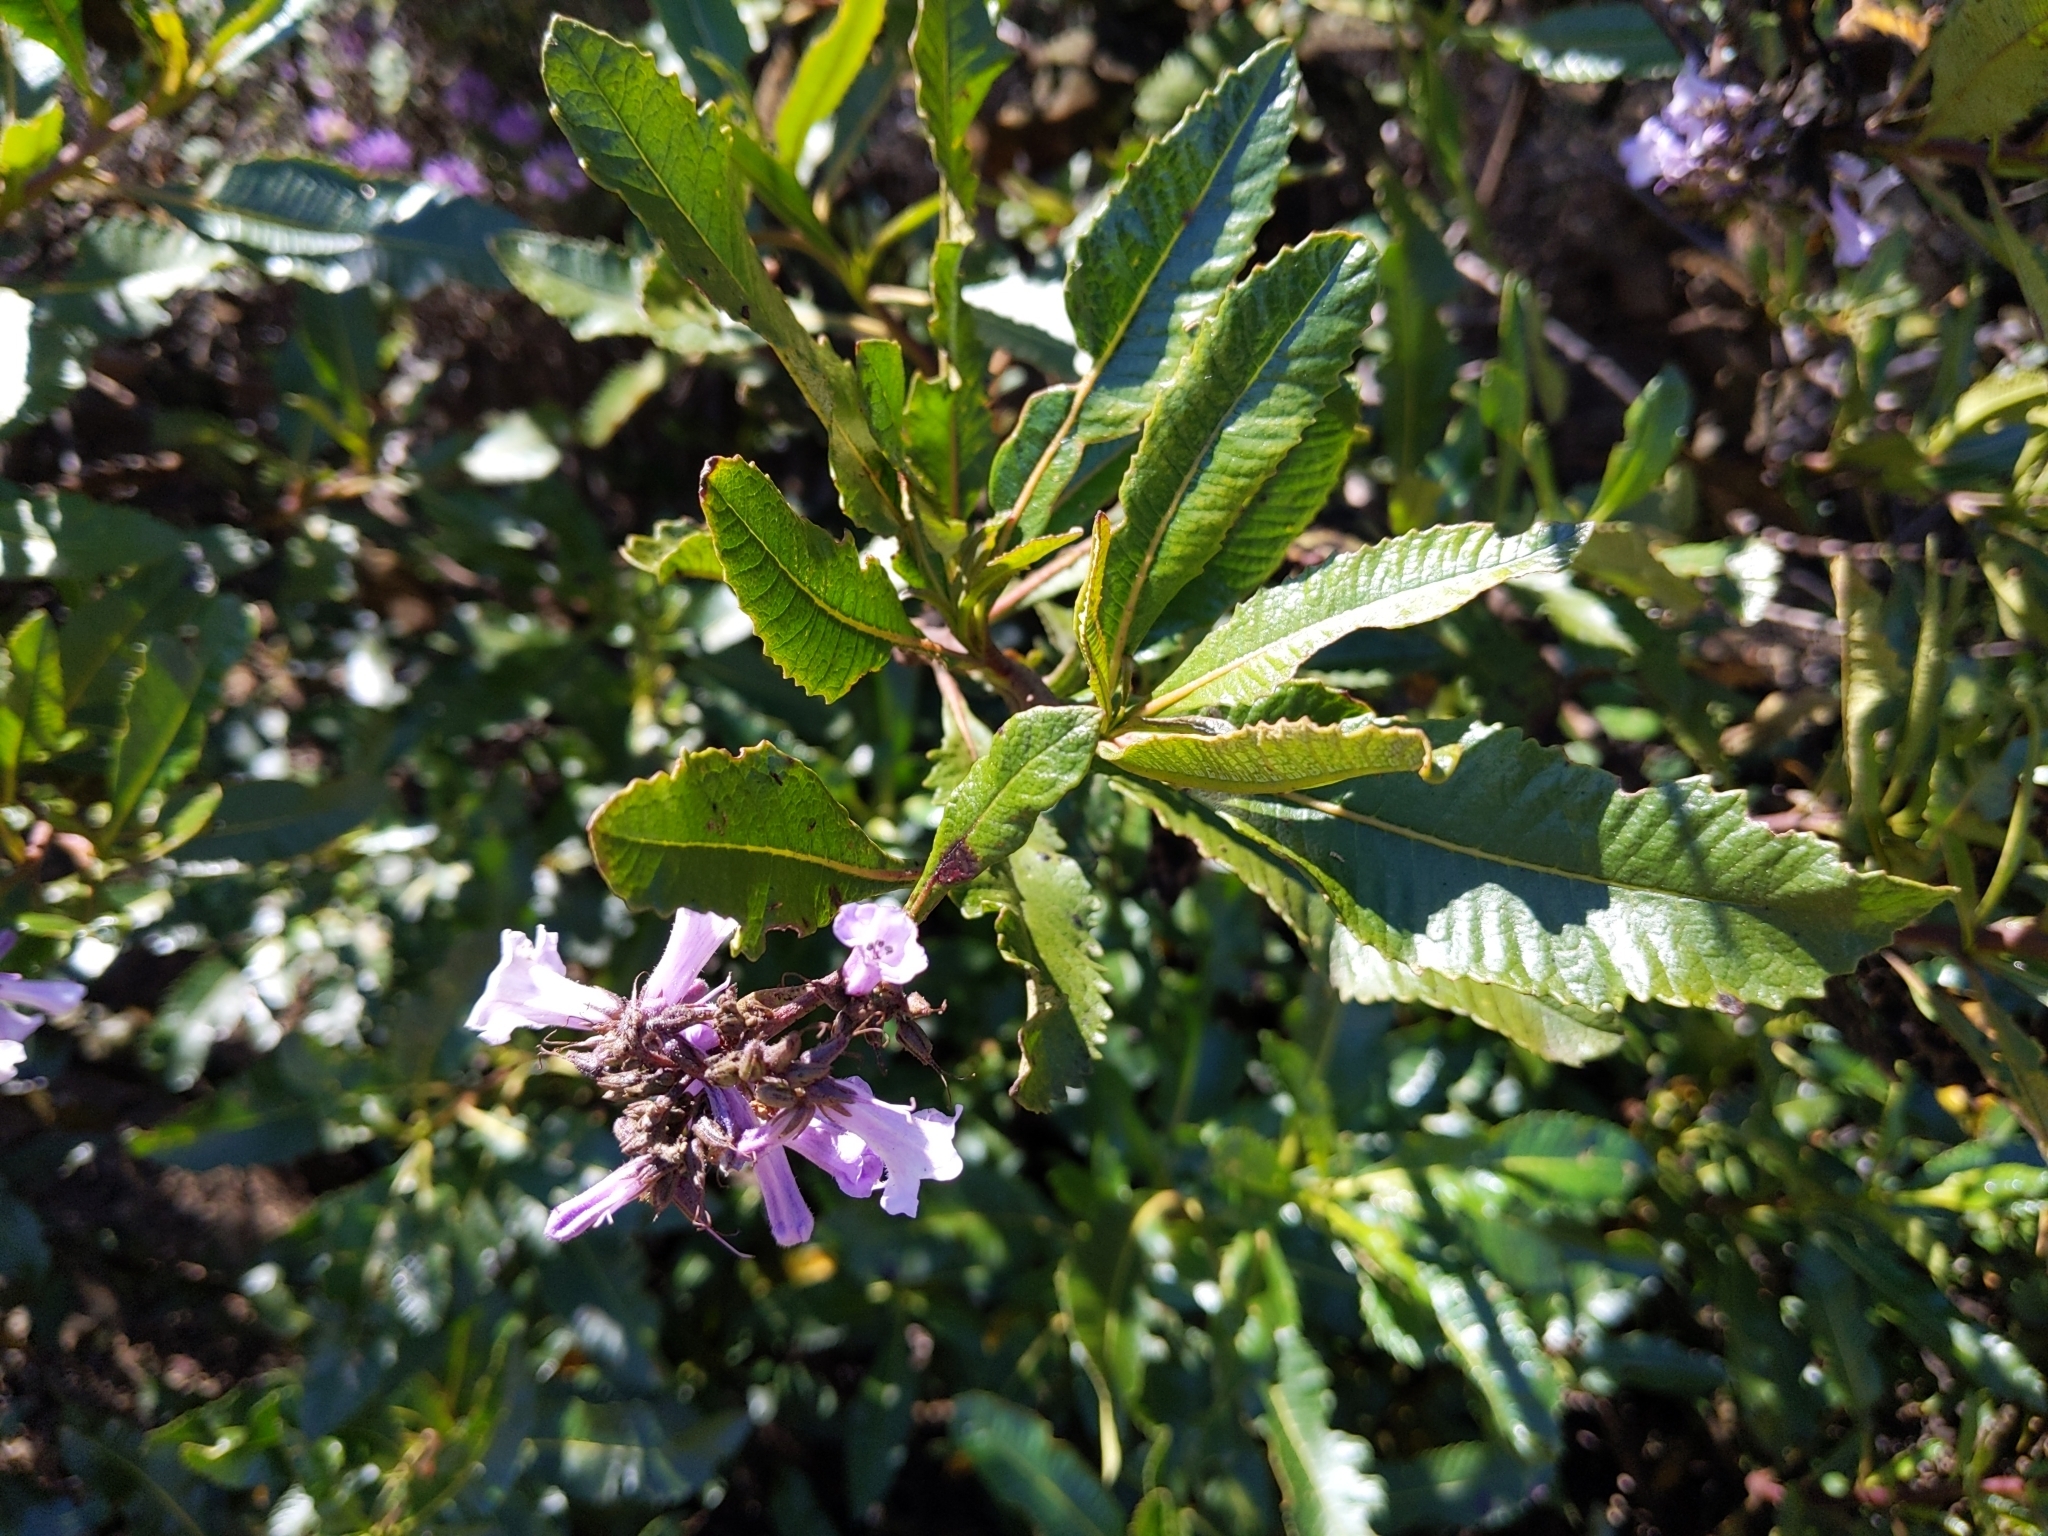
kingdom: Plantae
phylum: Tracheophyta
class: Magnoliopsida
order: Boraginales
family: Namaceae
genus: Eriodictyon
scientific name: Eriodictyon californicum
